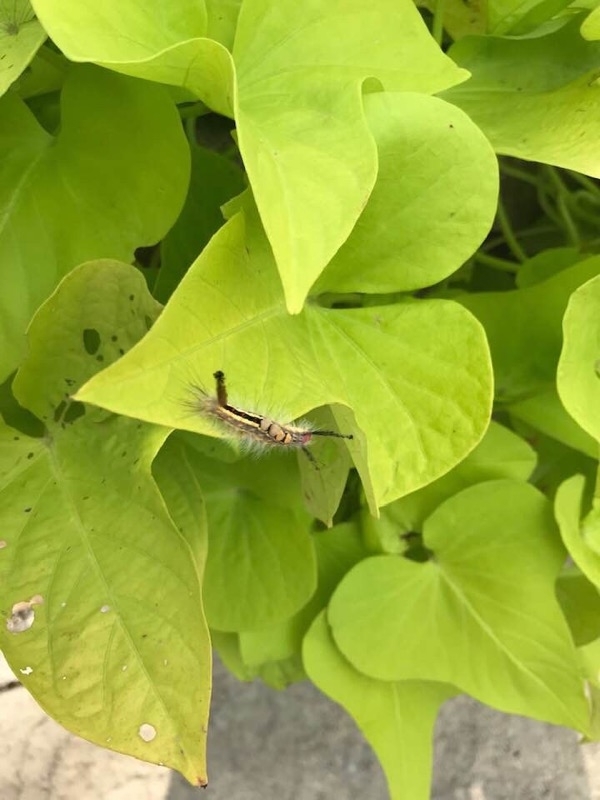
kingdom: Animalia
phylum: Arthropoda
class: Insecta
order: Lepidoptera
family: Erebidae
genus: Orgyia
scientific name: Orgyia leucostigma
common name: White-marked tussock moth
